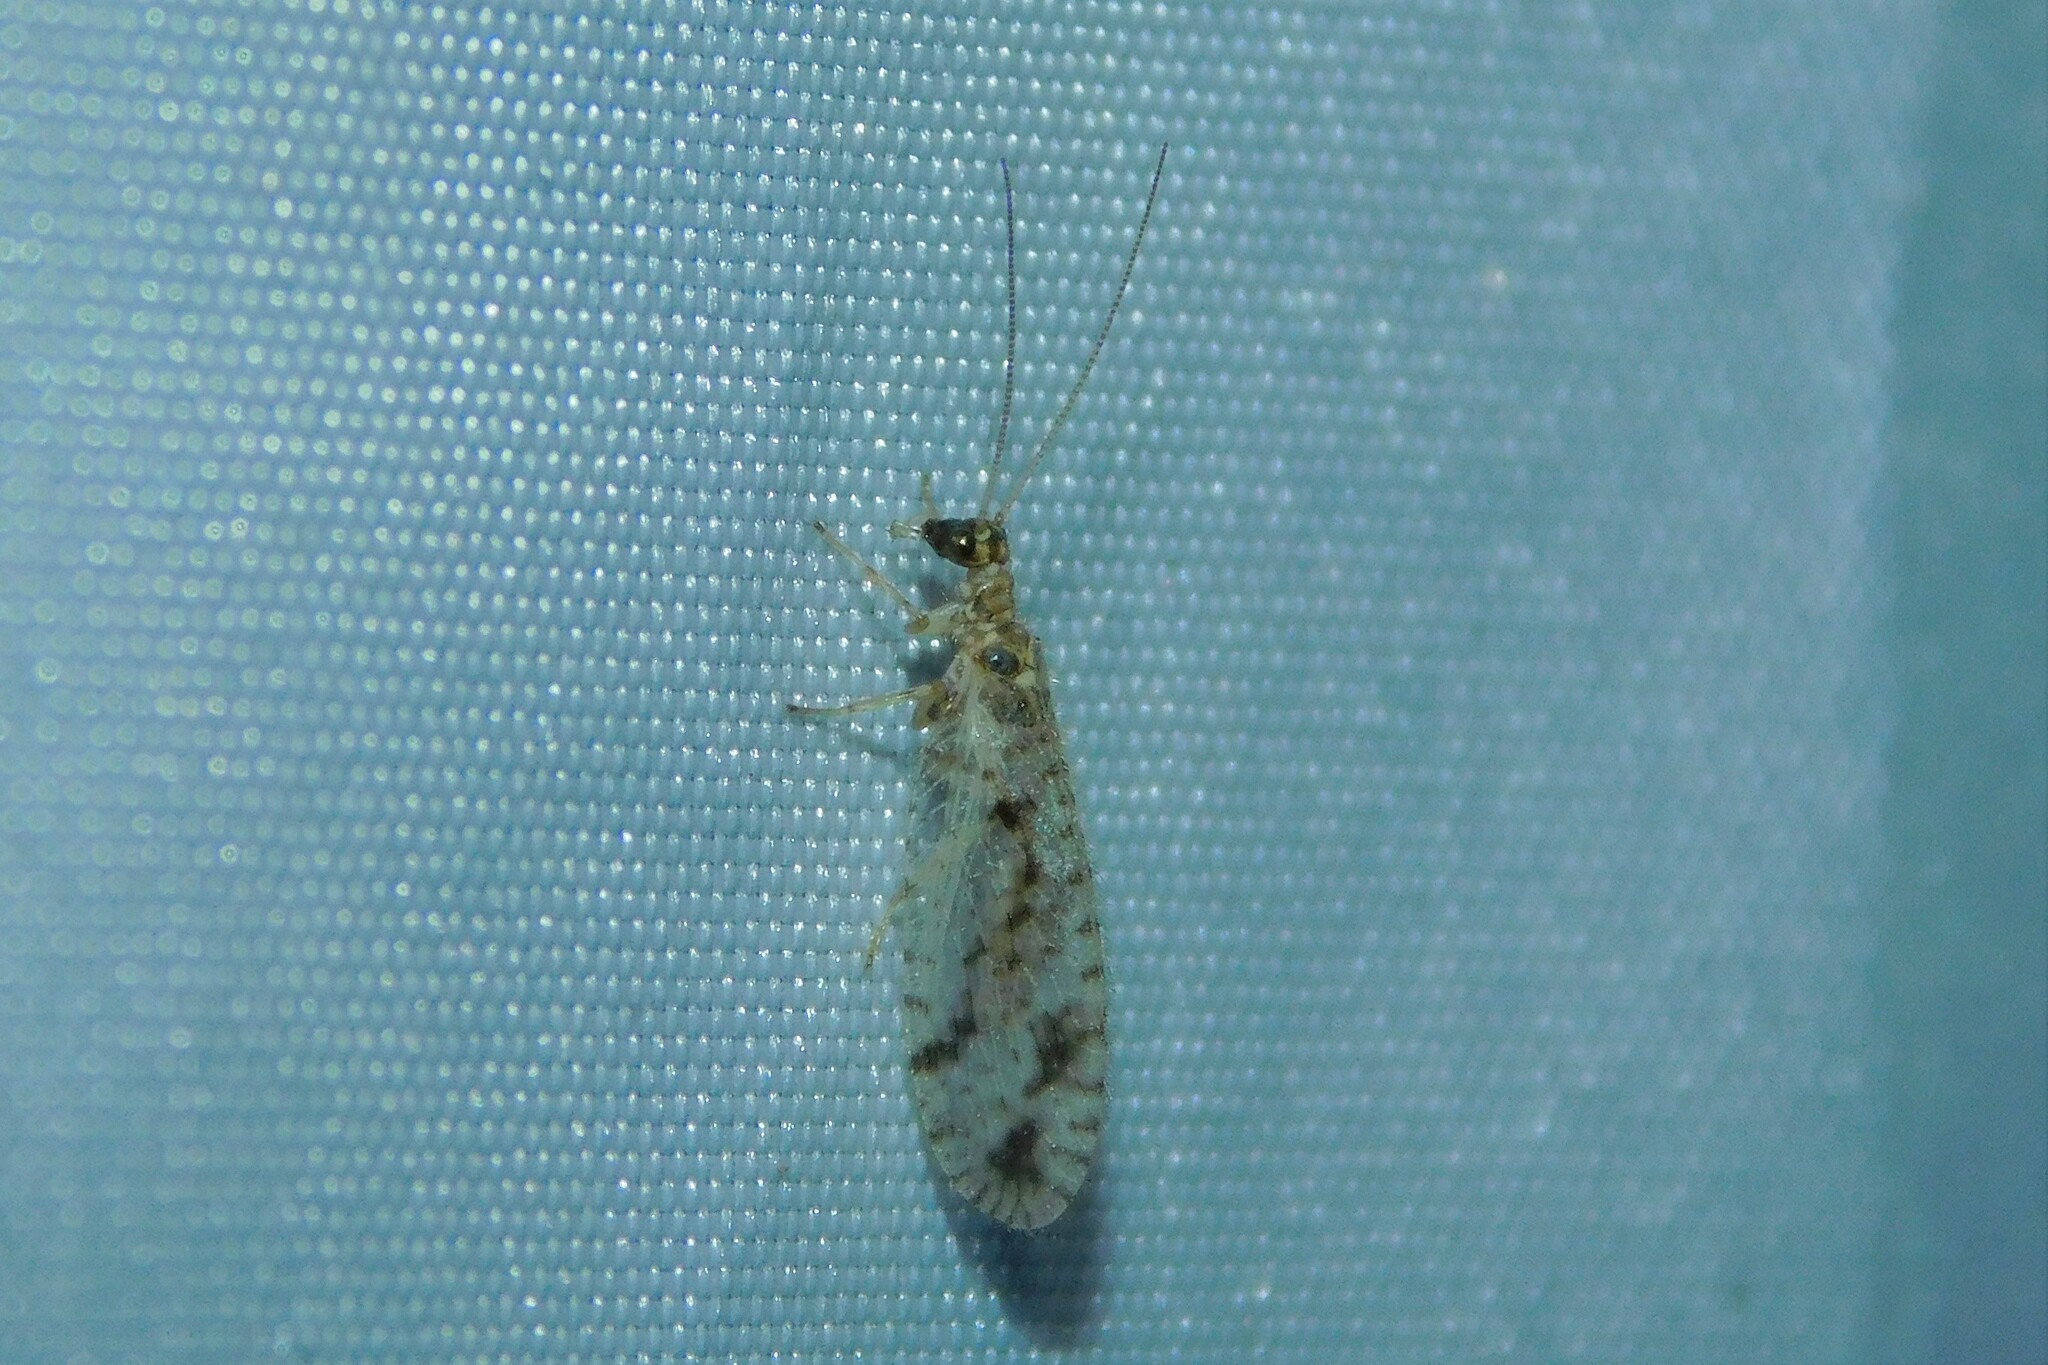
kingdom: Animalia
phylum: Arthropoda
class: Insecta
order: Neuroptera
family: Hemerobiidae
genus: Micromus
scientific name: Micromus variegatus
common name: Brown lacewing
